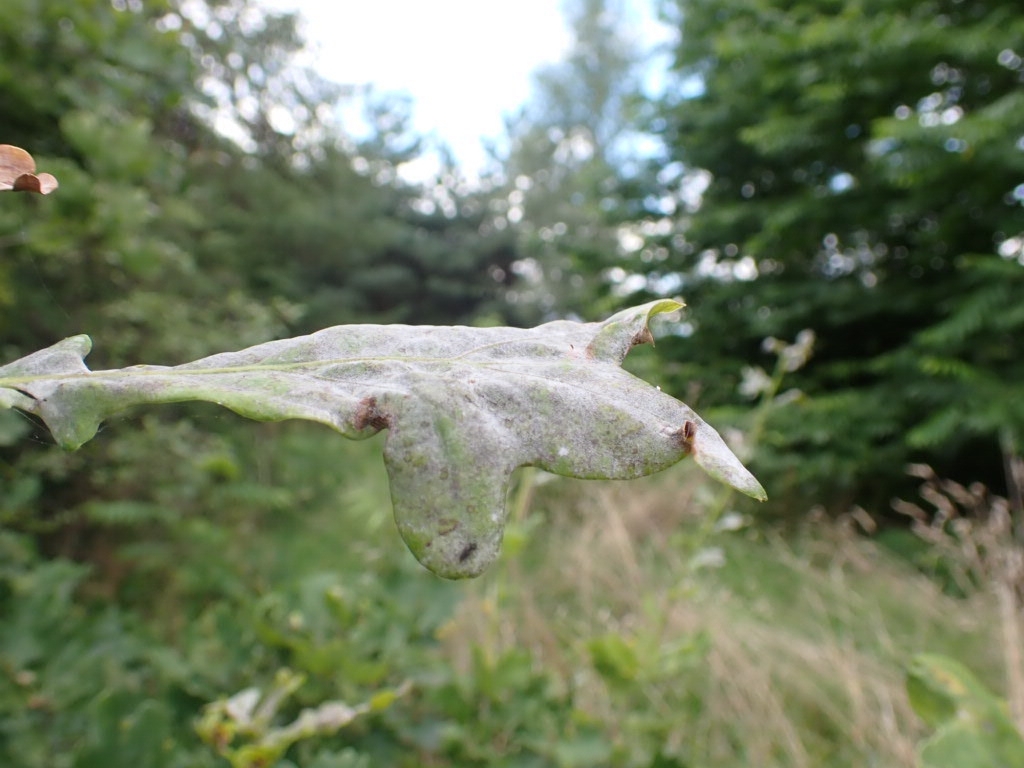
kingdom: Fungi
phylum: Ascomycota
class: Leotiomycetes
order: Helotiales
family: Erysiphaceae
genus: Erysiphe
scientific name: Erysiphe alphitoides
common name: Oak mildew
